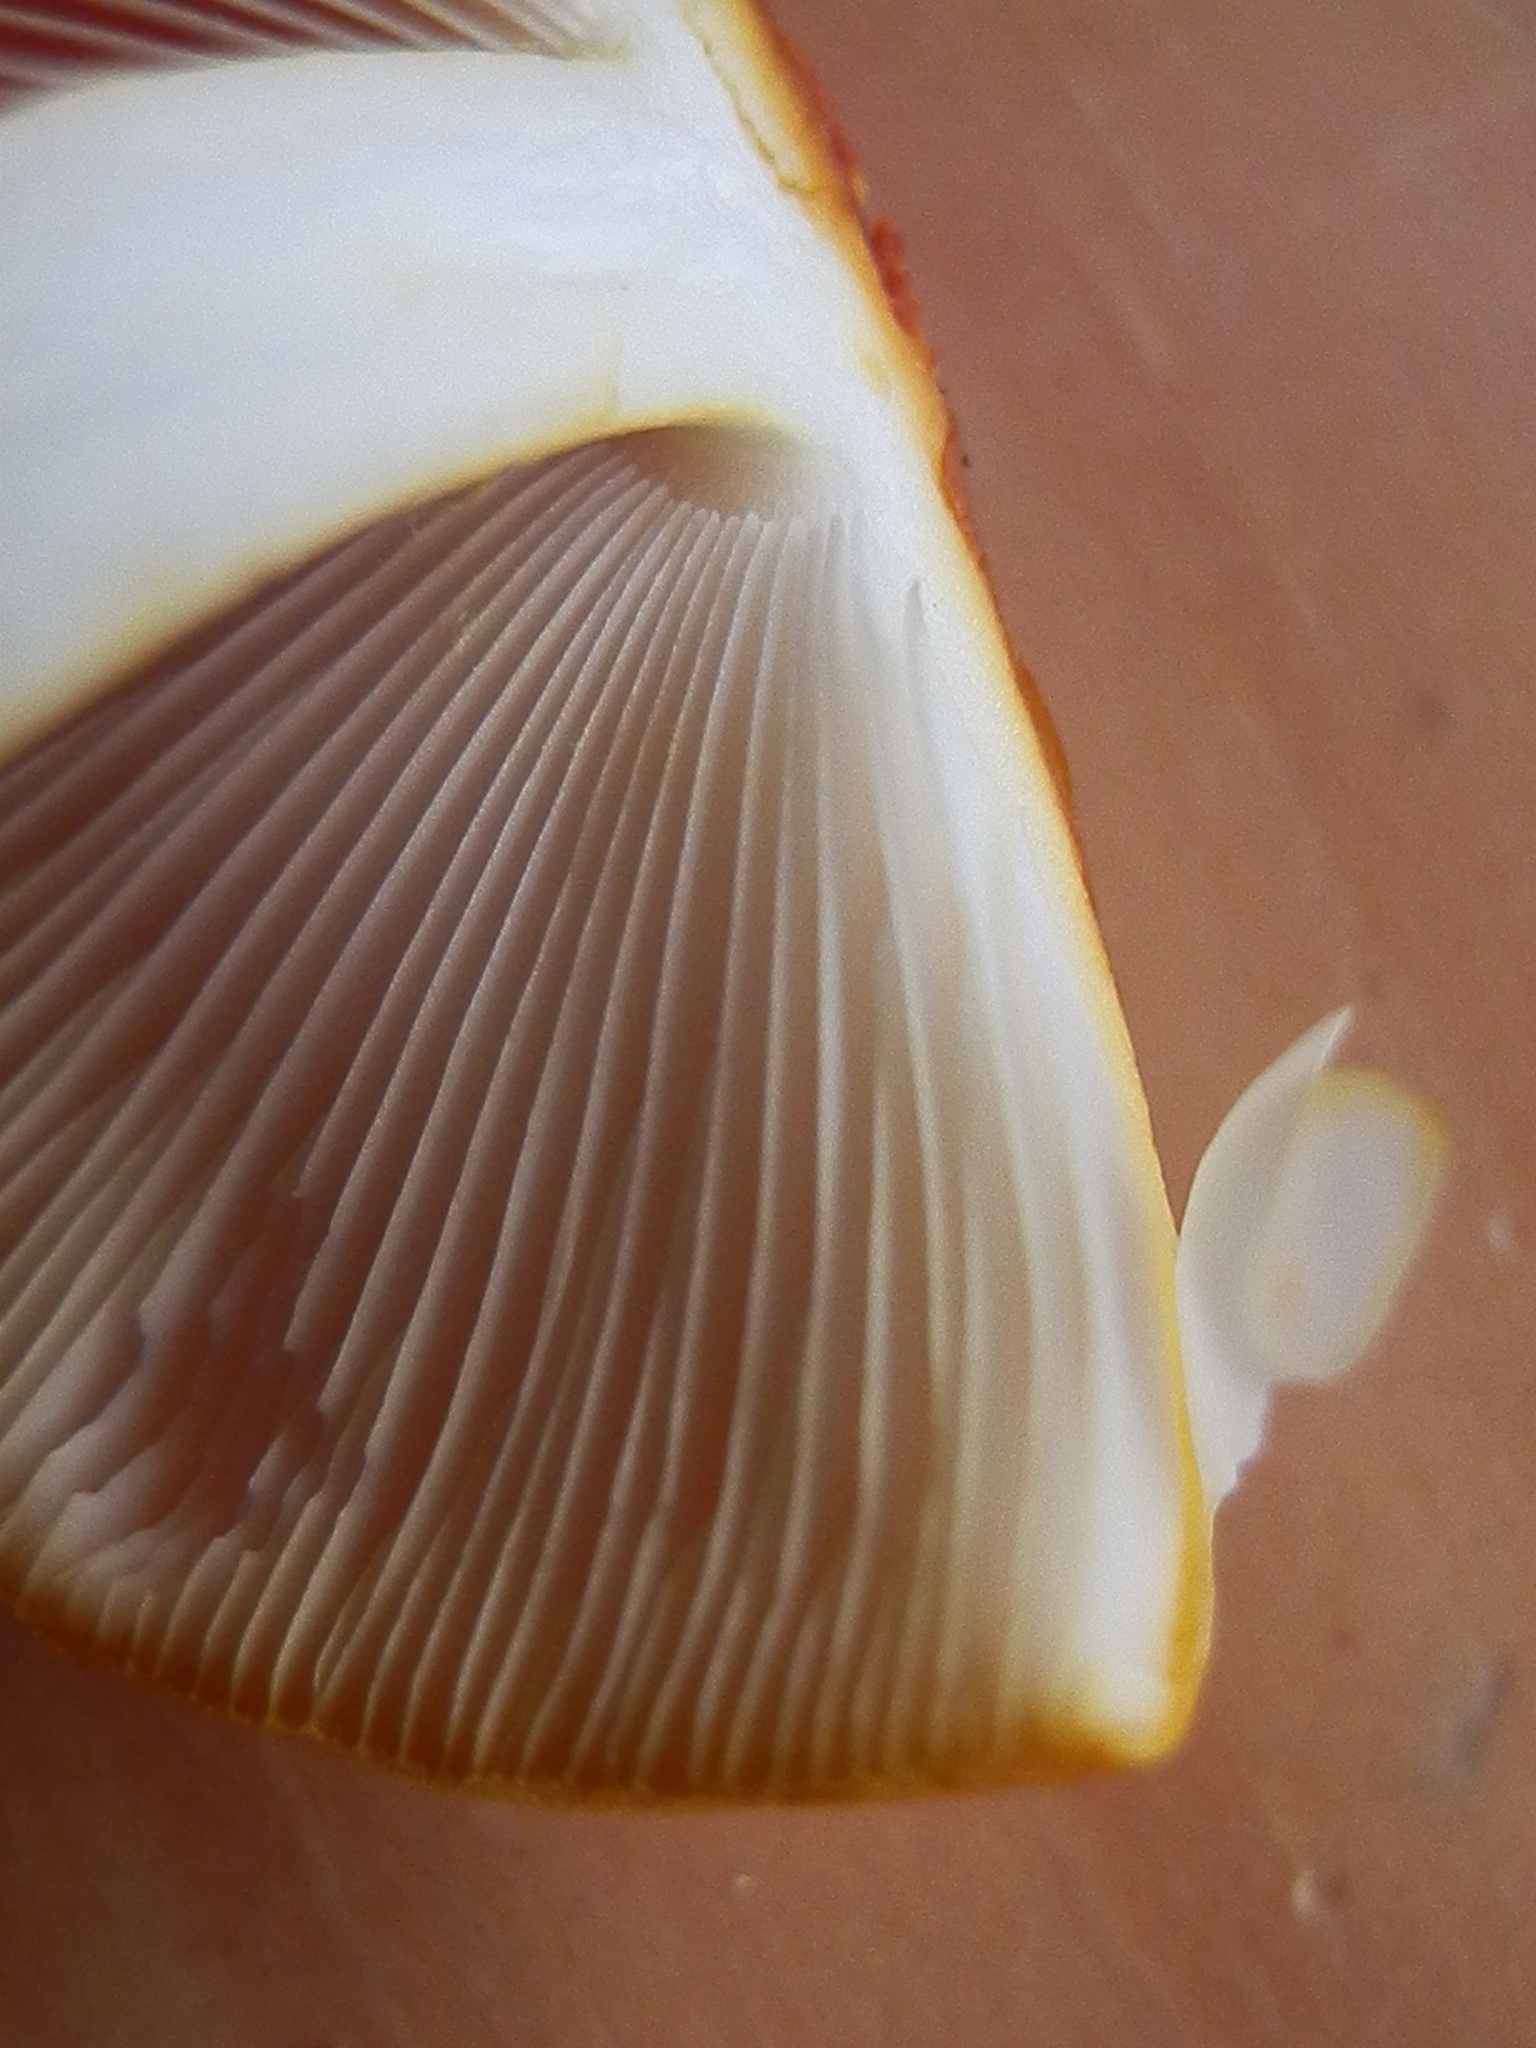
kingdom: Fungi
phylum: Basidiomycota
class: Agaricomycetes
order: Agaricales
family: Amanitaceae
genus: Amanita
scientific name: Amanita flavoconia
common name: Yellow patches
